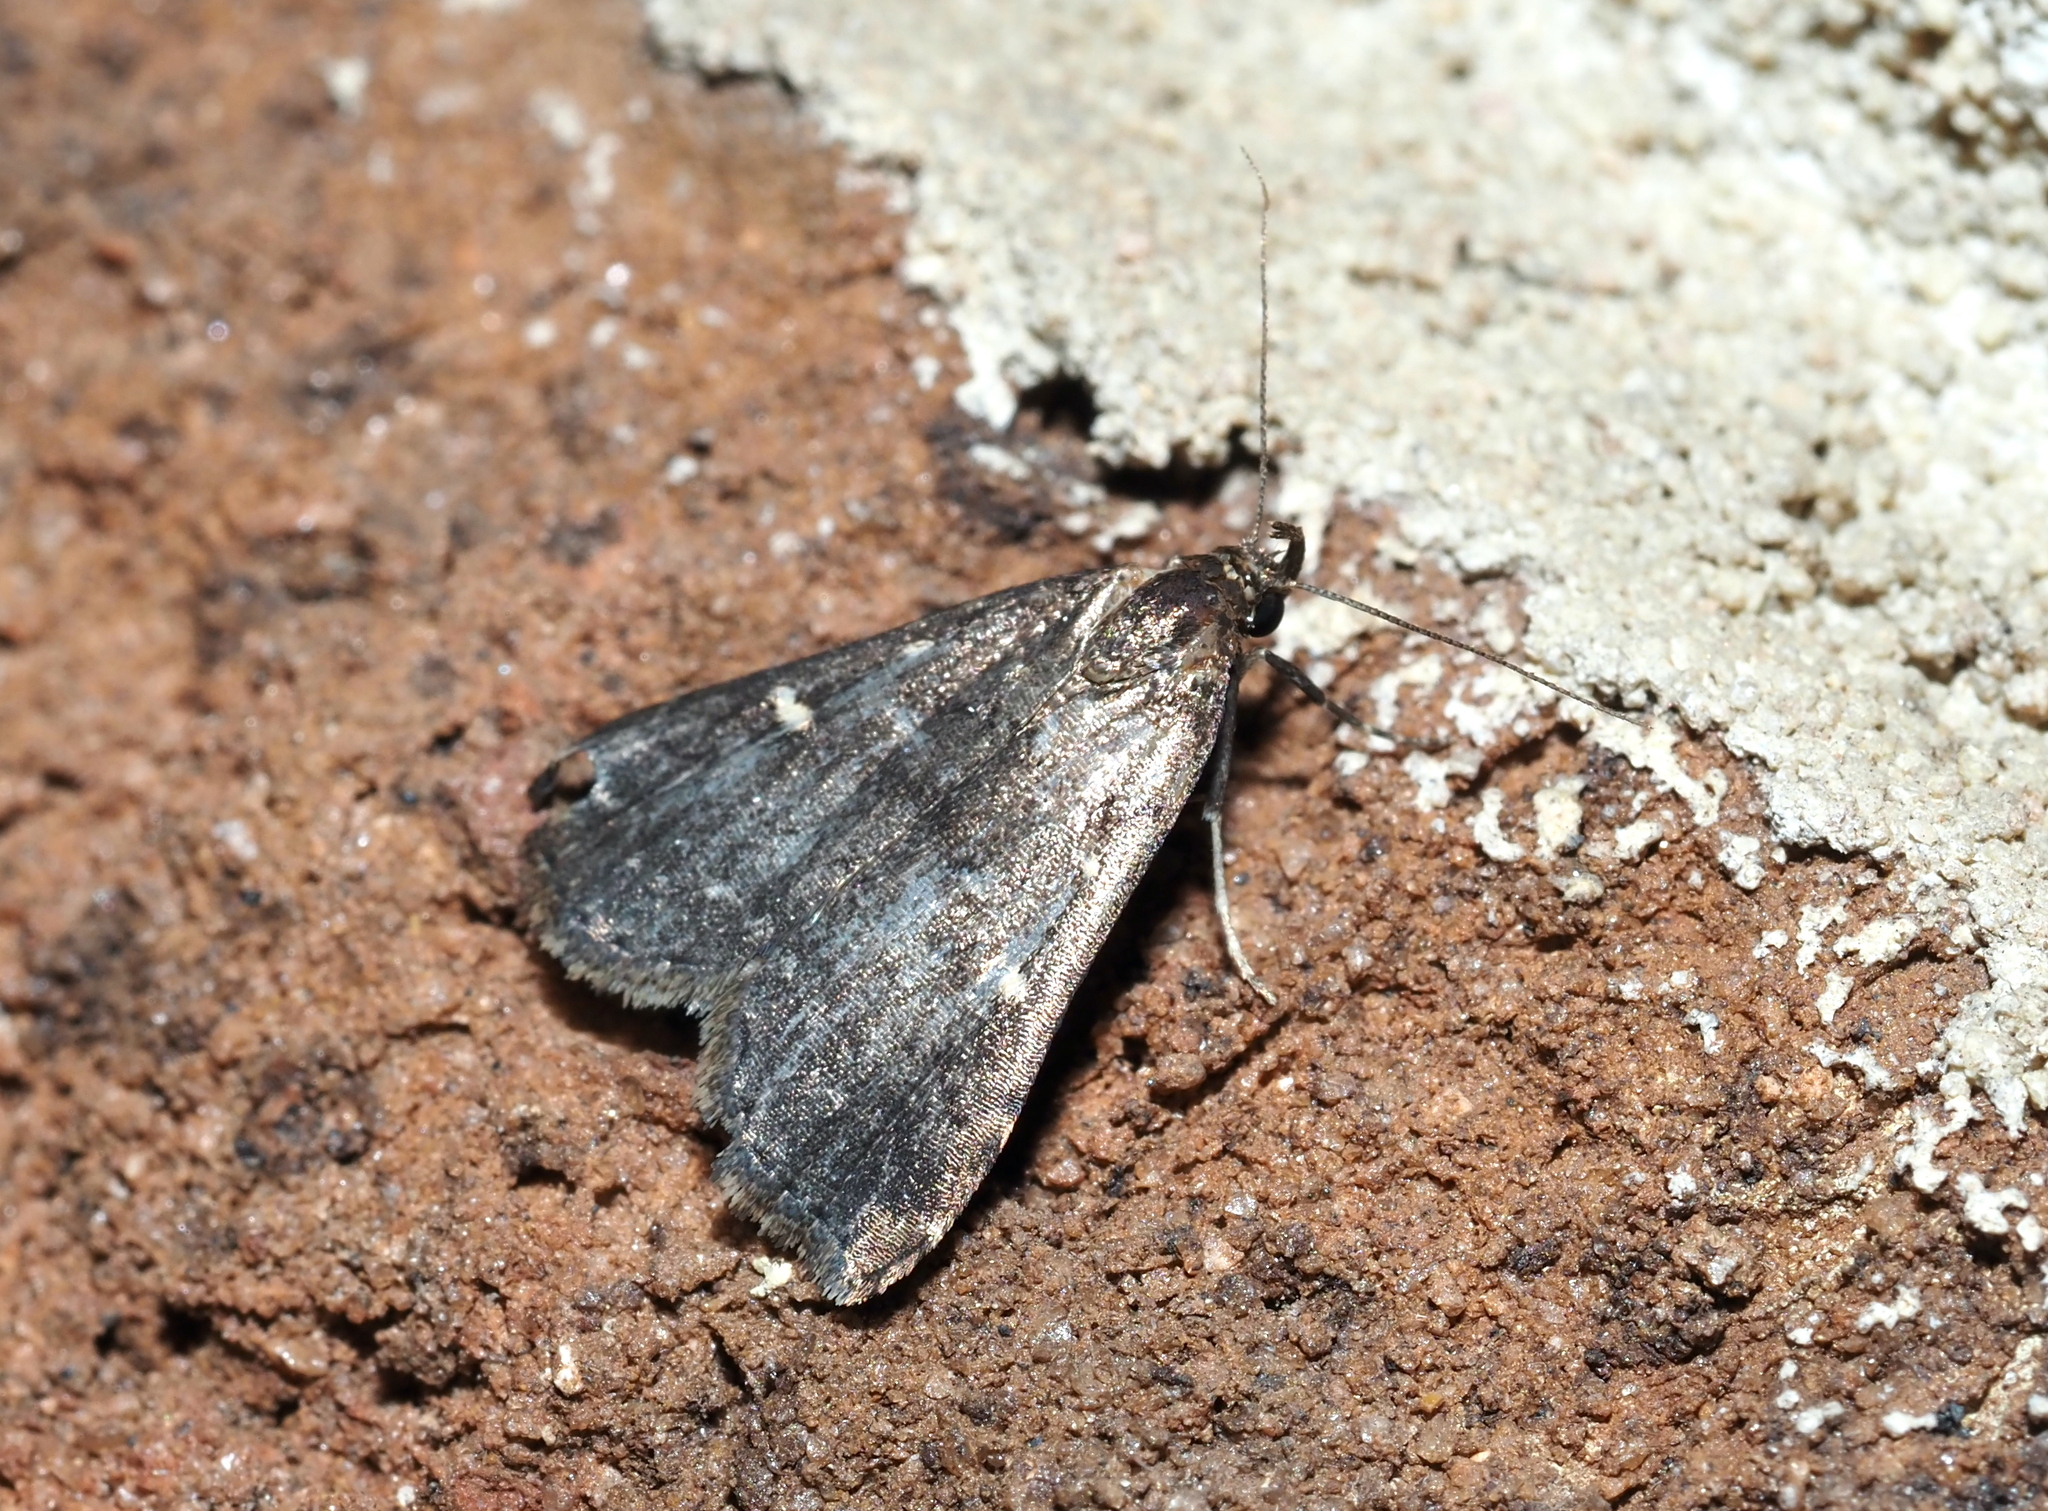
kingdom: Animalia
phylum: Arthropoda
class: Insecta
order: Lepidoptera
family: Erebidae
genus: Tetanolita
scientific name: Tetanolita mynesalis
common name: Smoky tetanolita moth
